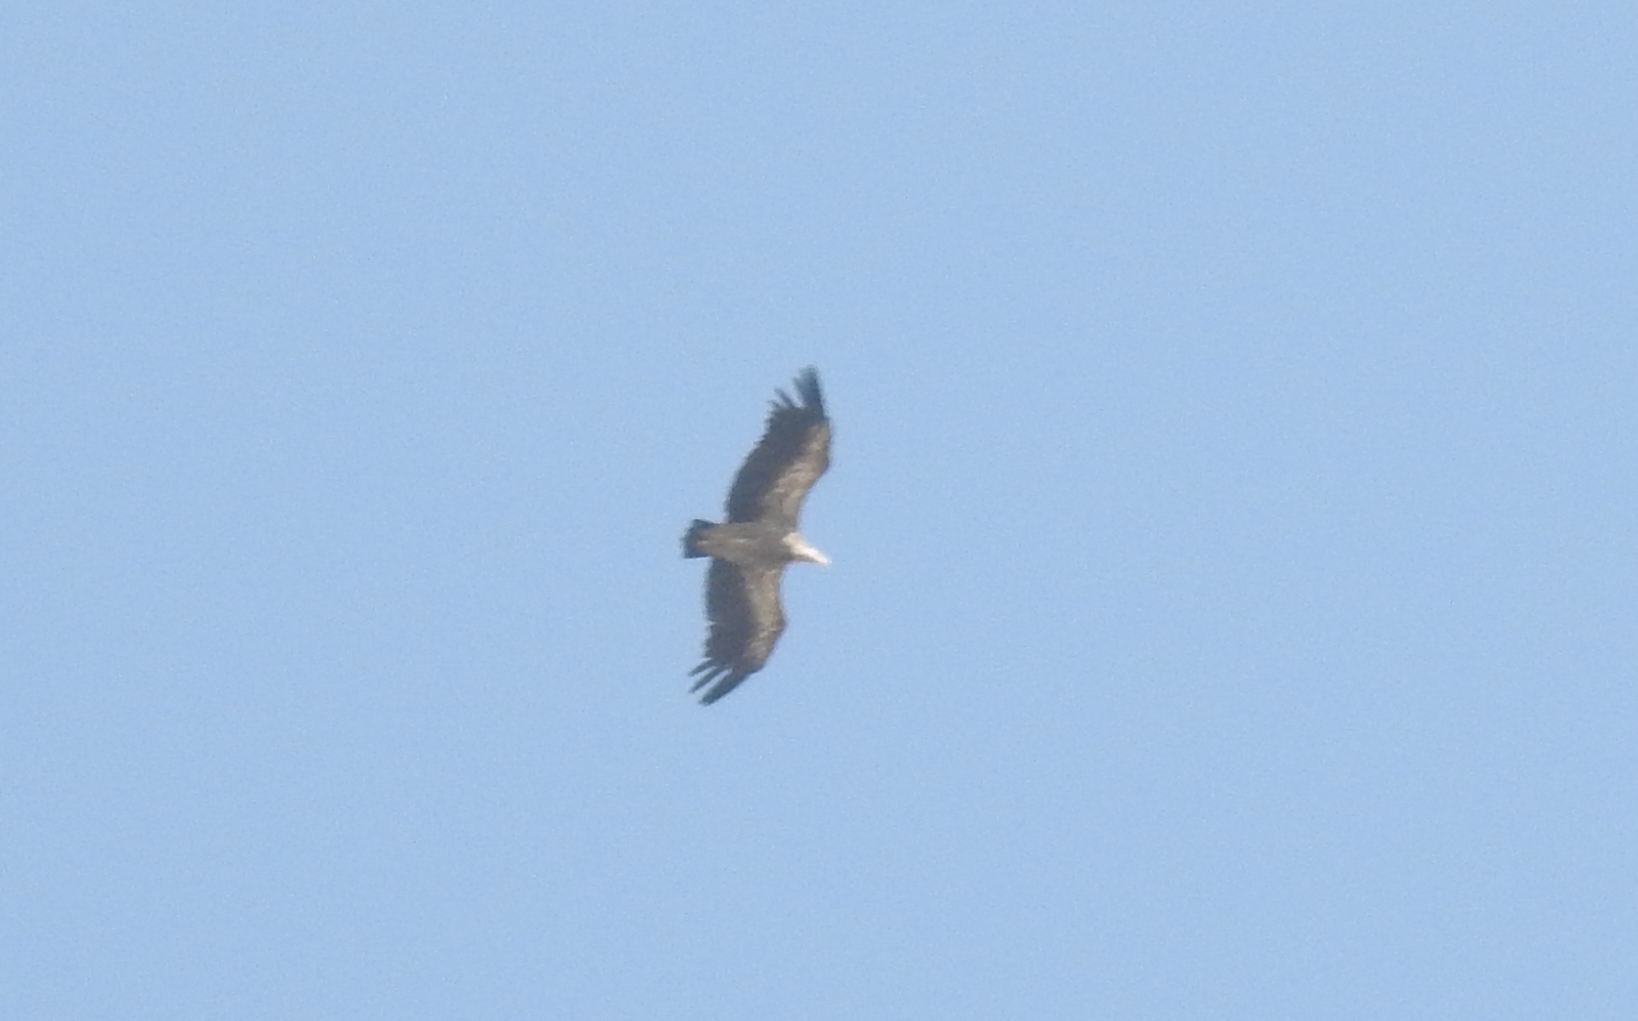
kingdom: Animalia
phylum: Chordata
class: Aves
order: Accipitriformes
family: Accipitridae
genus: Gyps
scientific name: Gyps fulvus
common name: Griffon vulture
